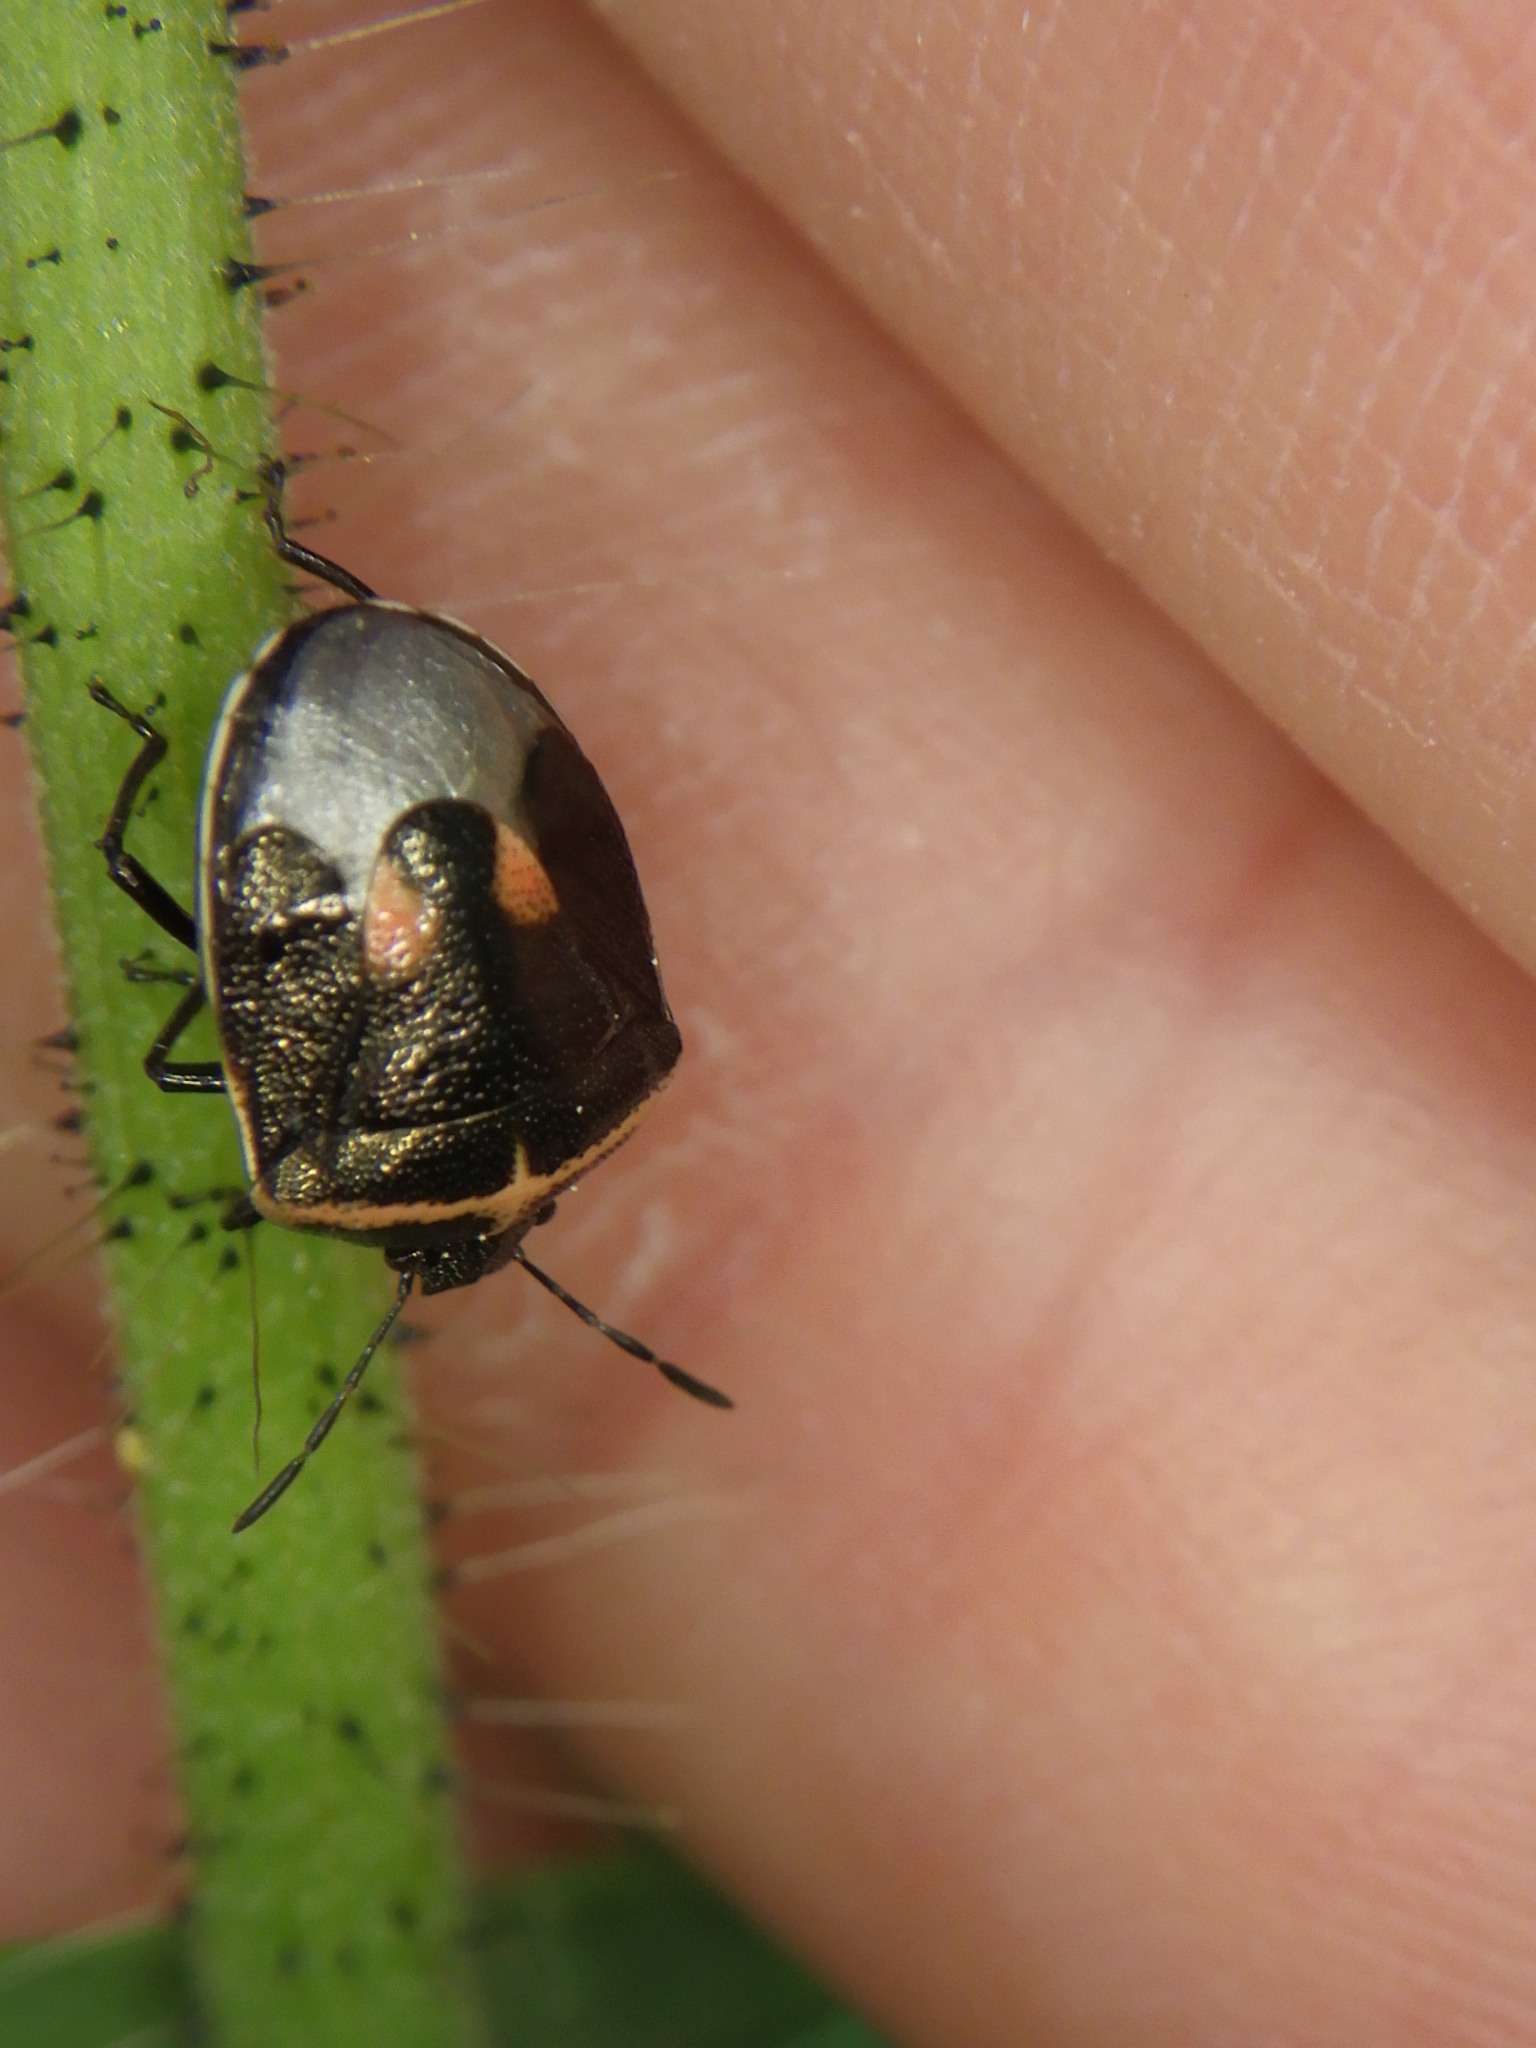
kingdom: Animalia
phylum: Arthropoda
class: Insecta
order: Hemiptera
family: Pentatomidae
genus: Cosmopepla
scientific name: Cosmopepla lintneriana
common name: Twice-stabbed stink bug
